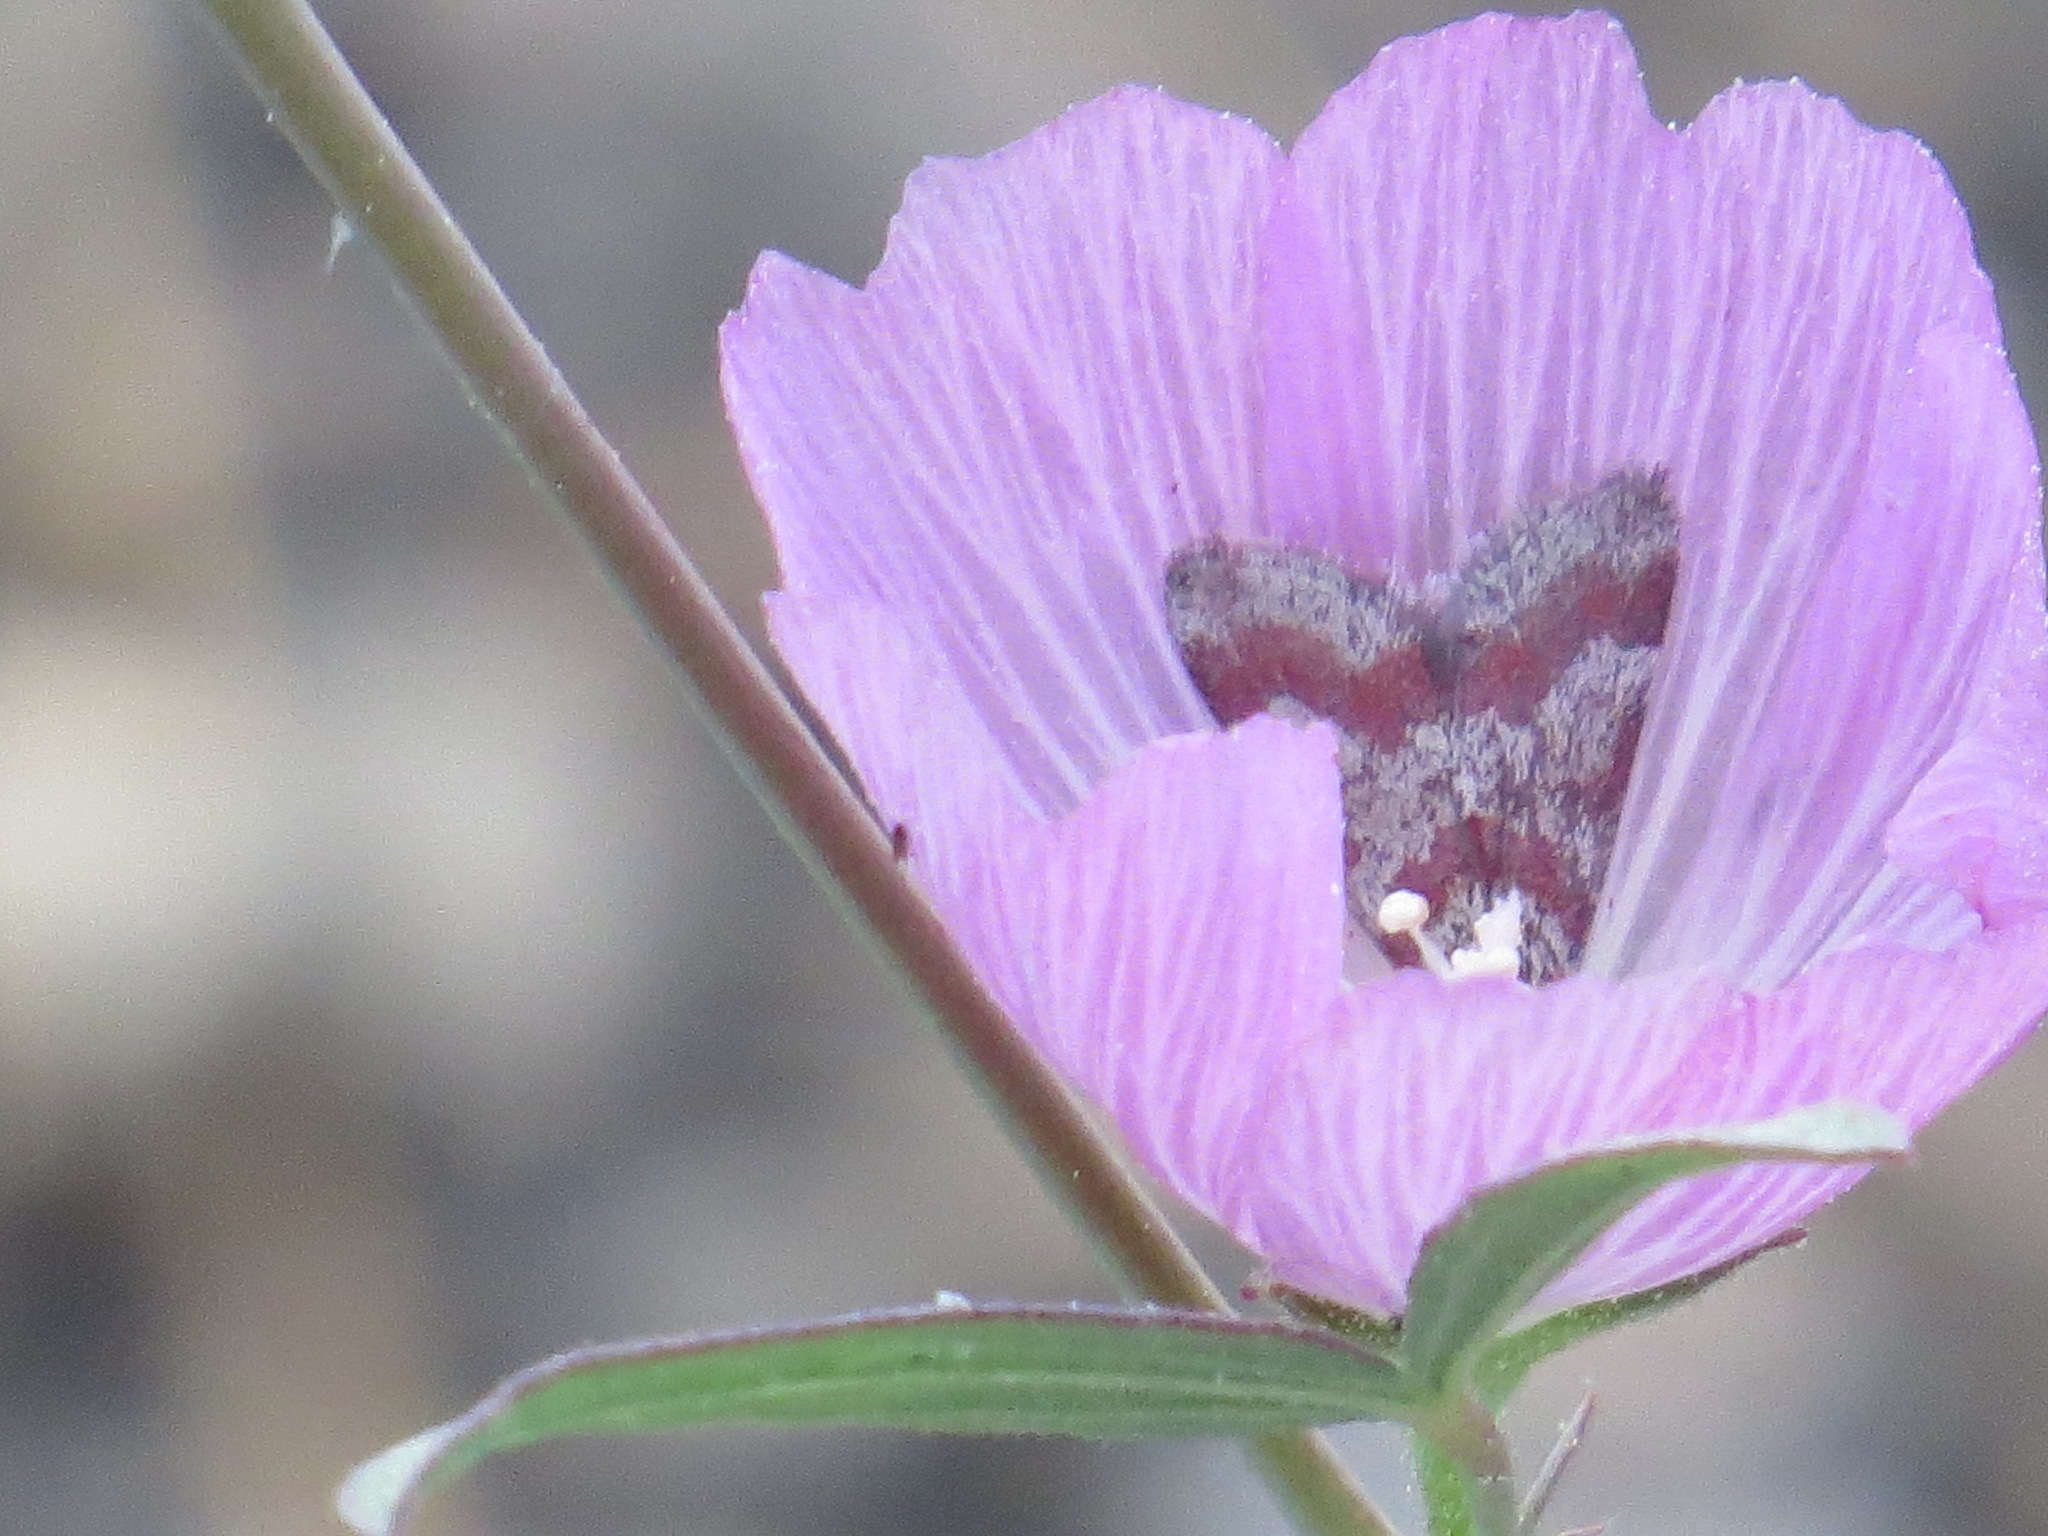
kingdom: Animalia
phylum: Arthropoda
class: Insecta
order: Lepidoptera
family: Crambidae
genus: Noctuelia
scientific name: Noctuelia Mimoschinia rufofascialis
